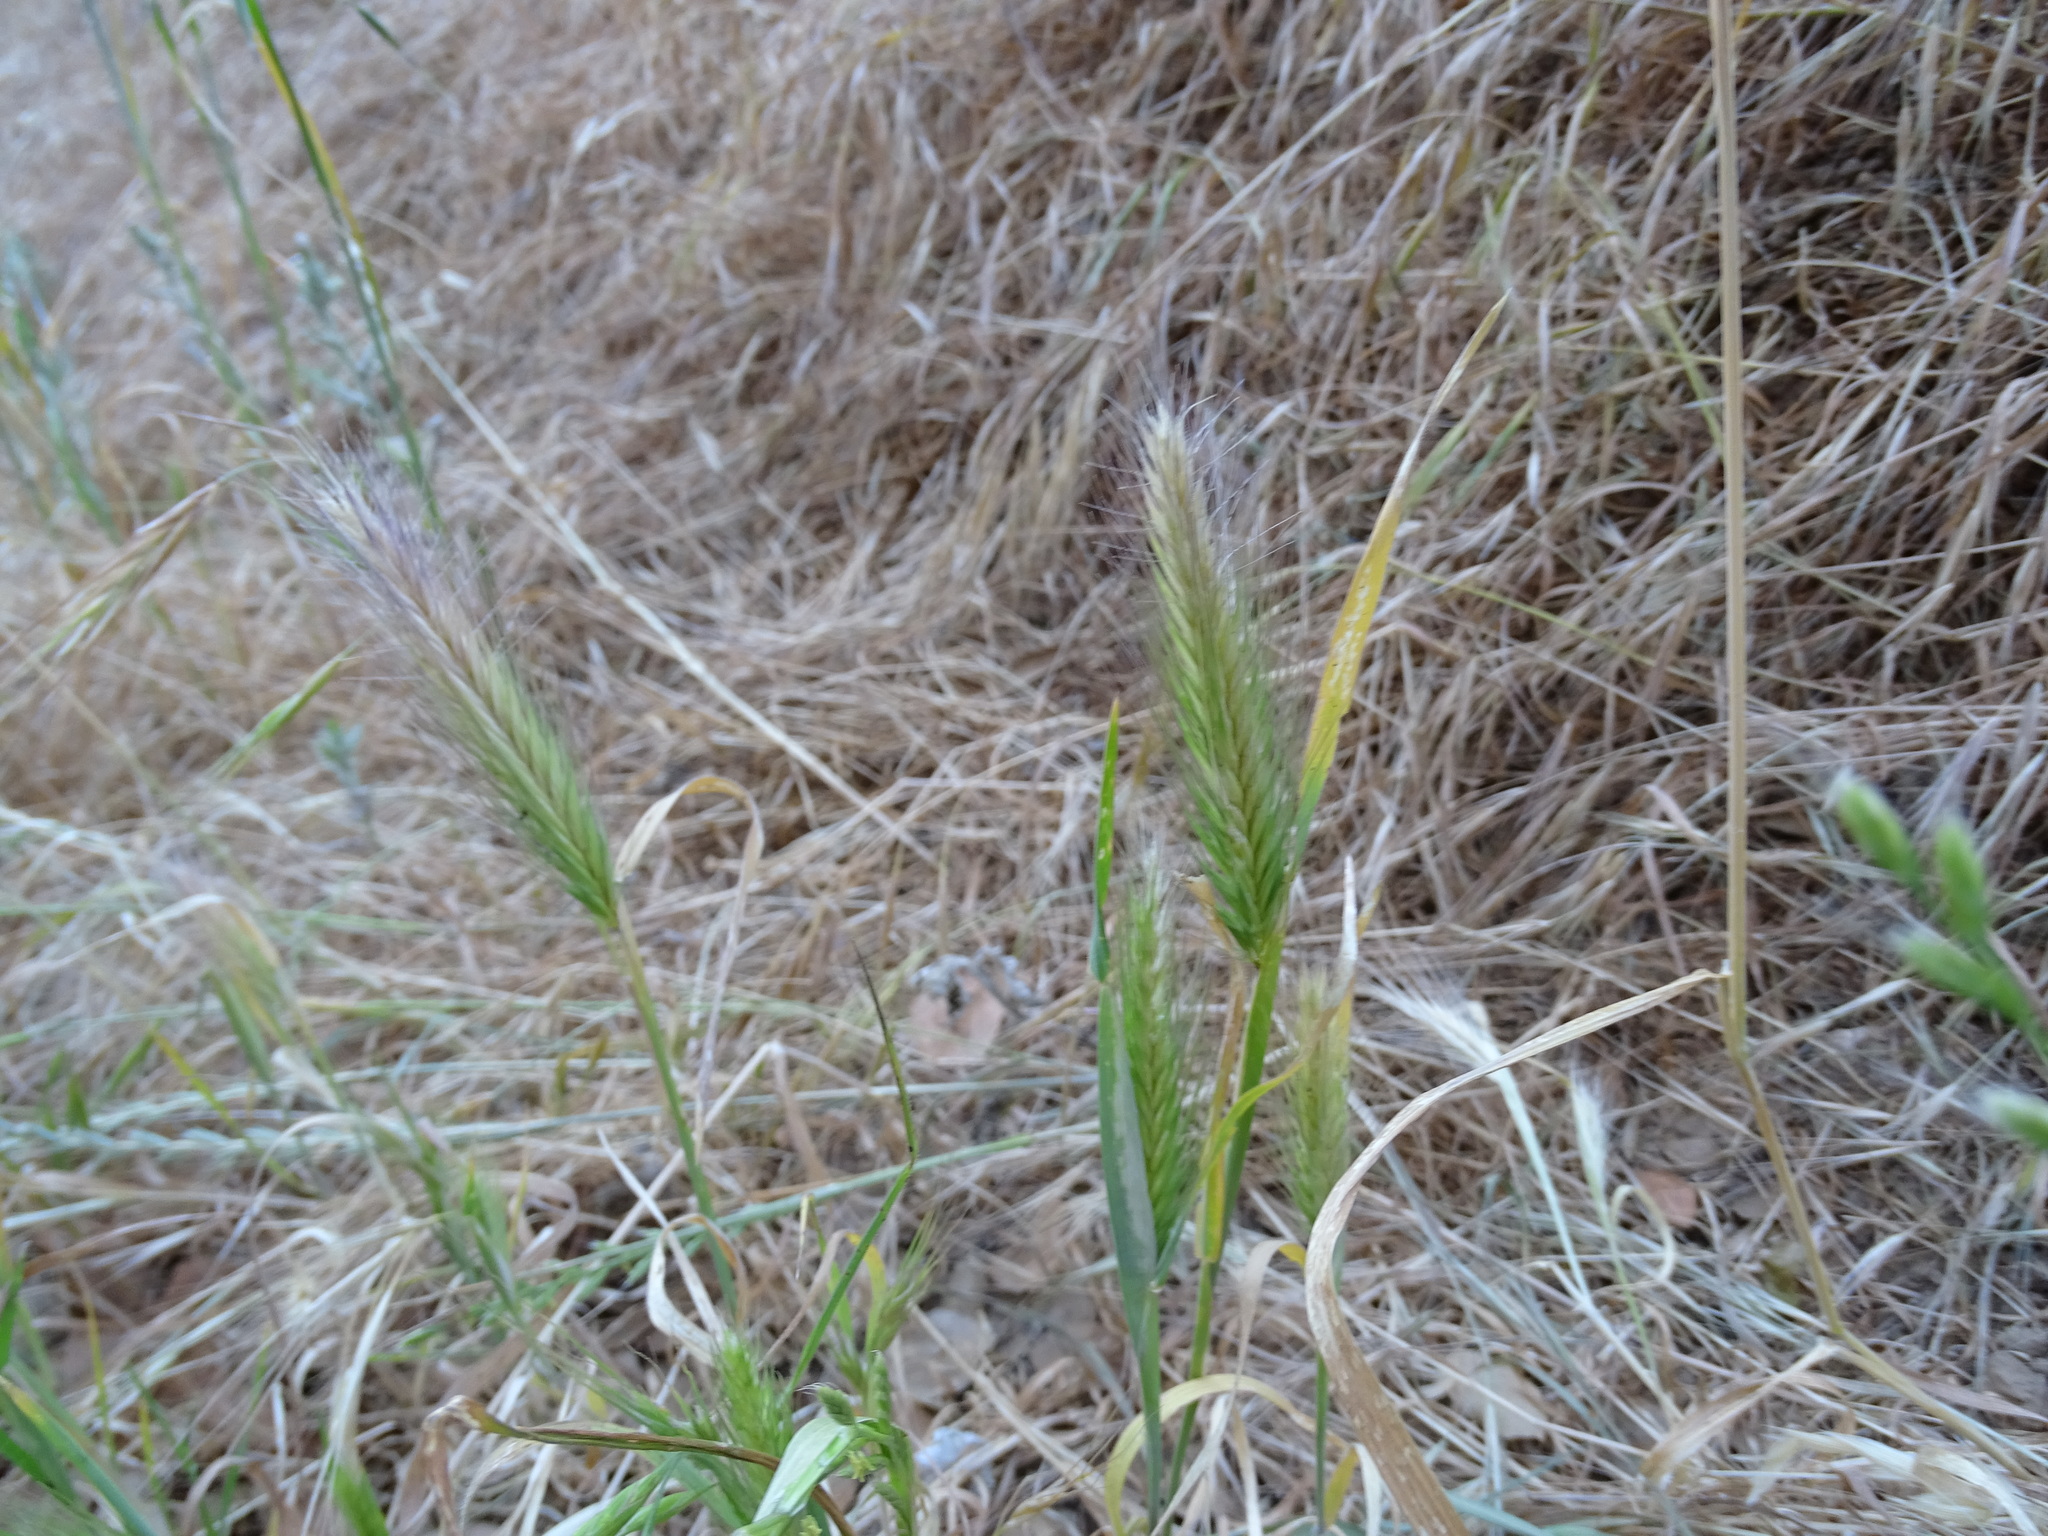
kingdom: Plantae
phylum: Tracheophyta
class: Liliopsida
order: Poales
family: Poaceae
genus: Hordeum
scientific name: Hordeum murinum
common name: Wall barley
